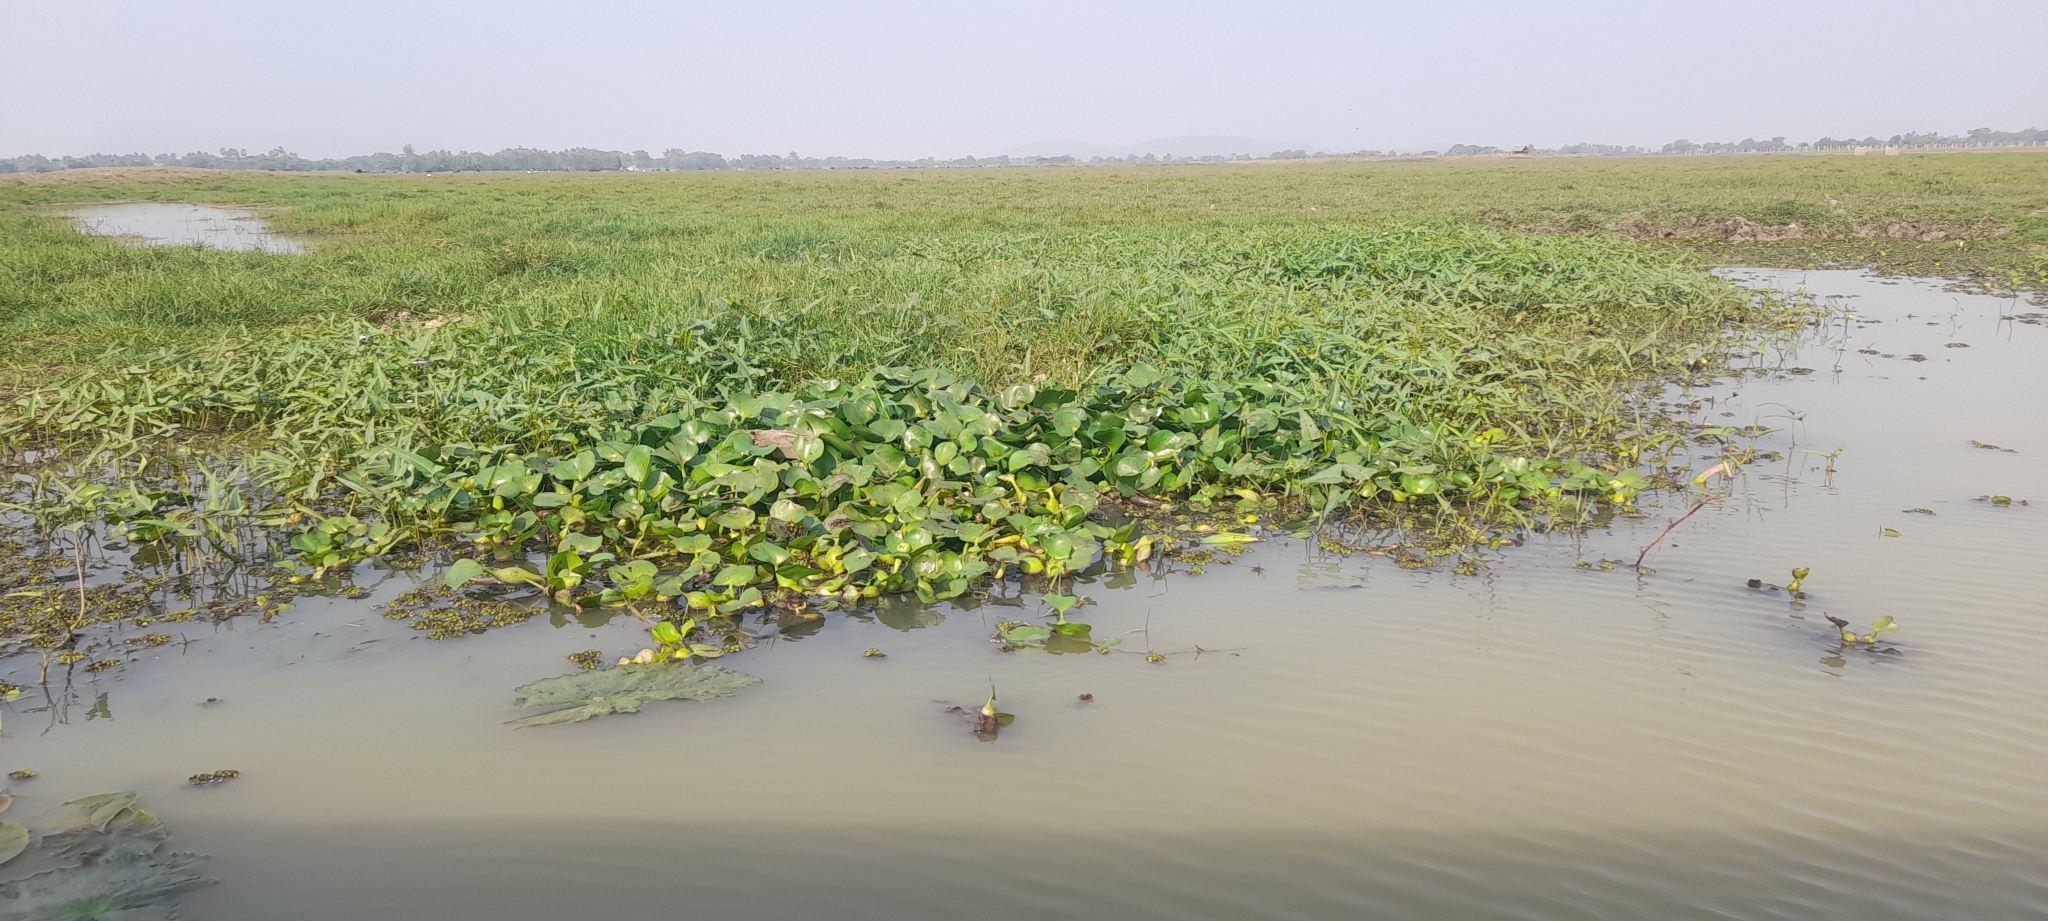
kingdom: Plantae
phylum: Tracheophyta
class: Liliopsida
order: Commelinales
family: Pontederiaceae
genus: Pontederia
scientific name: Pontederia crassipes
